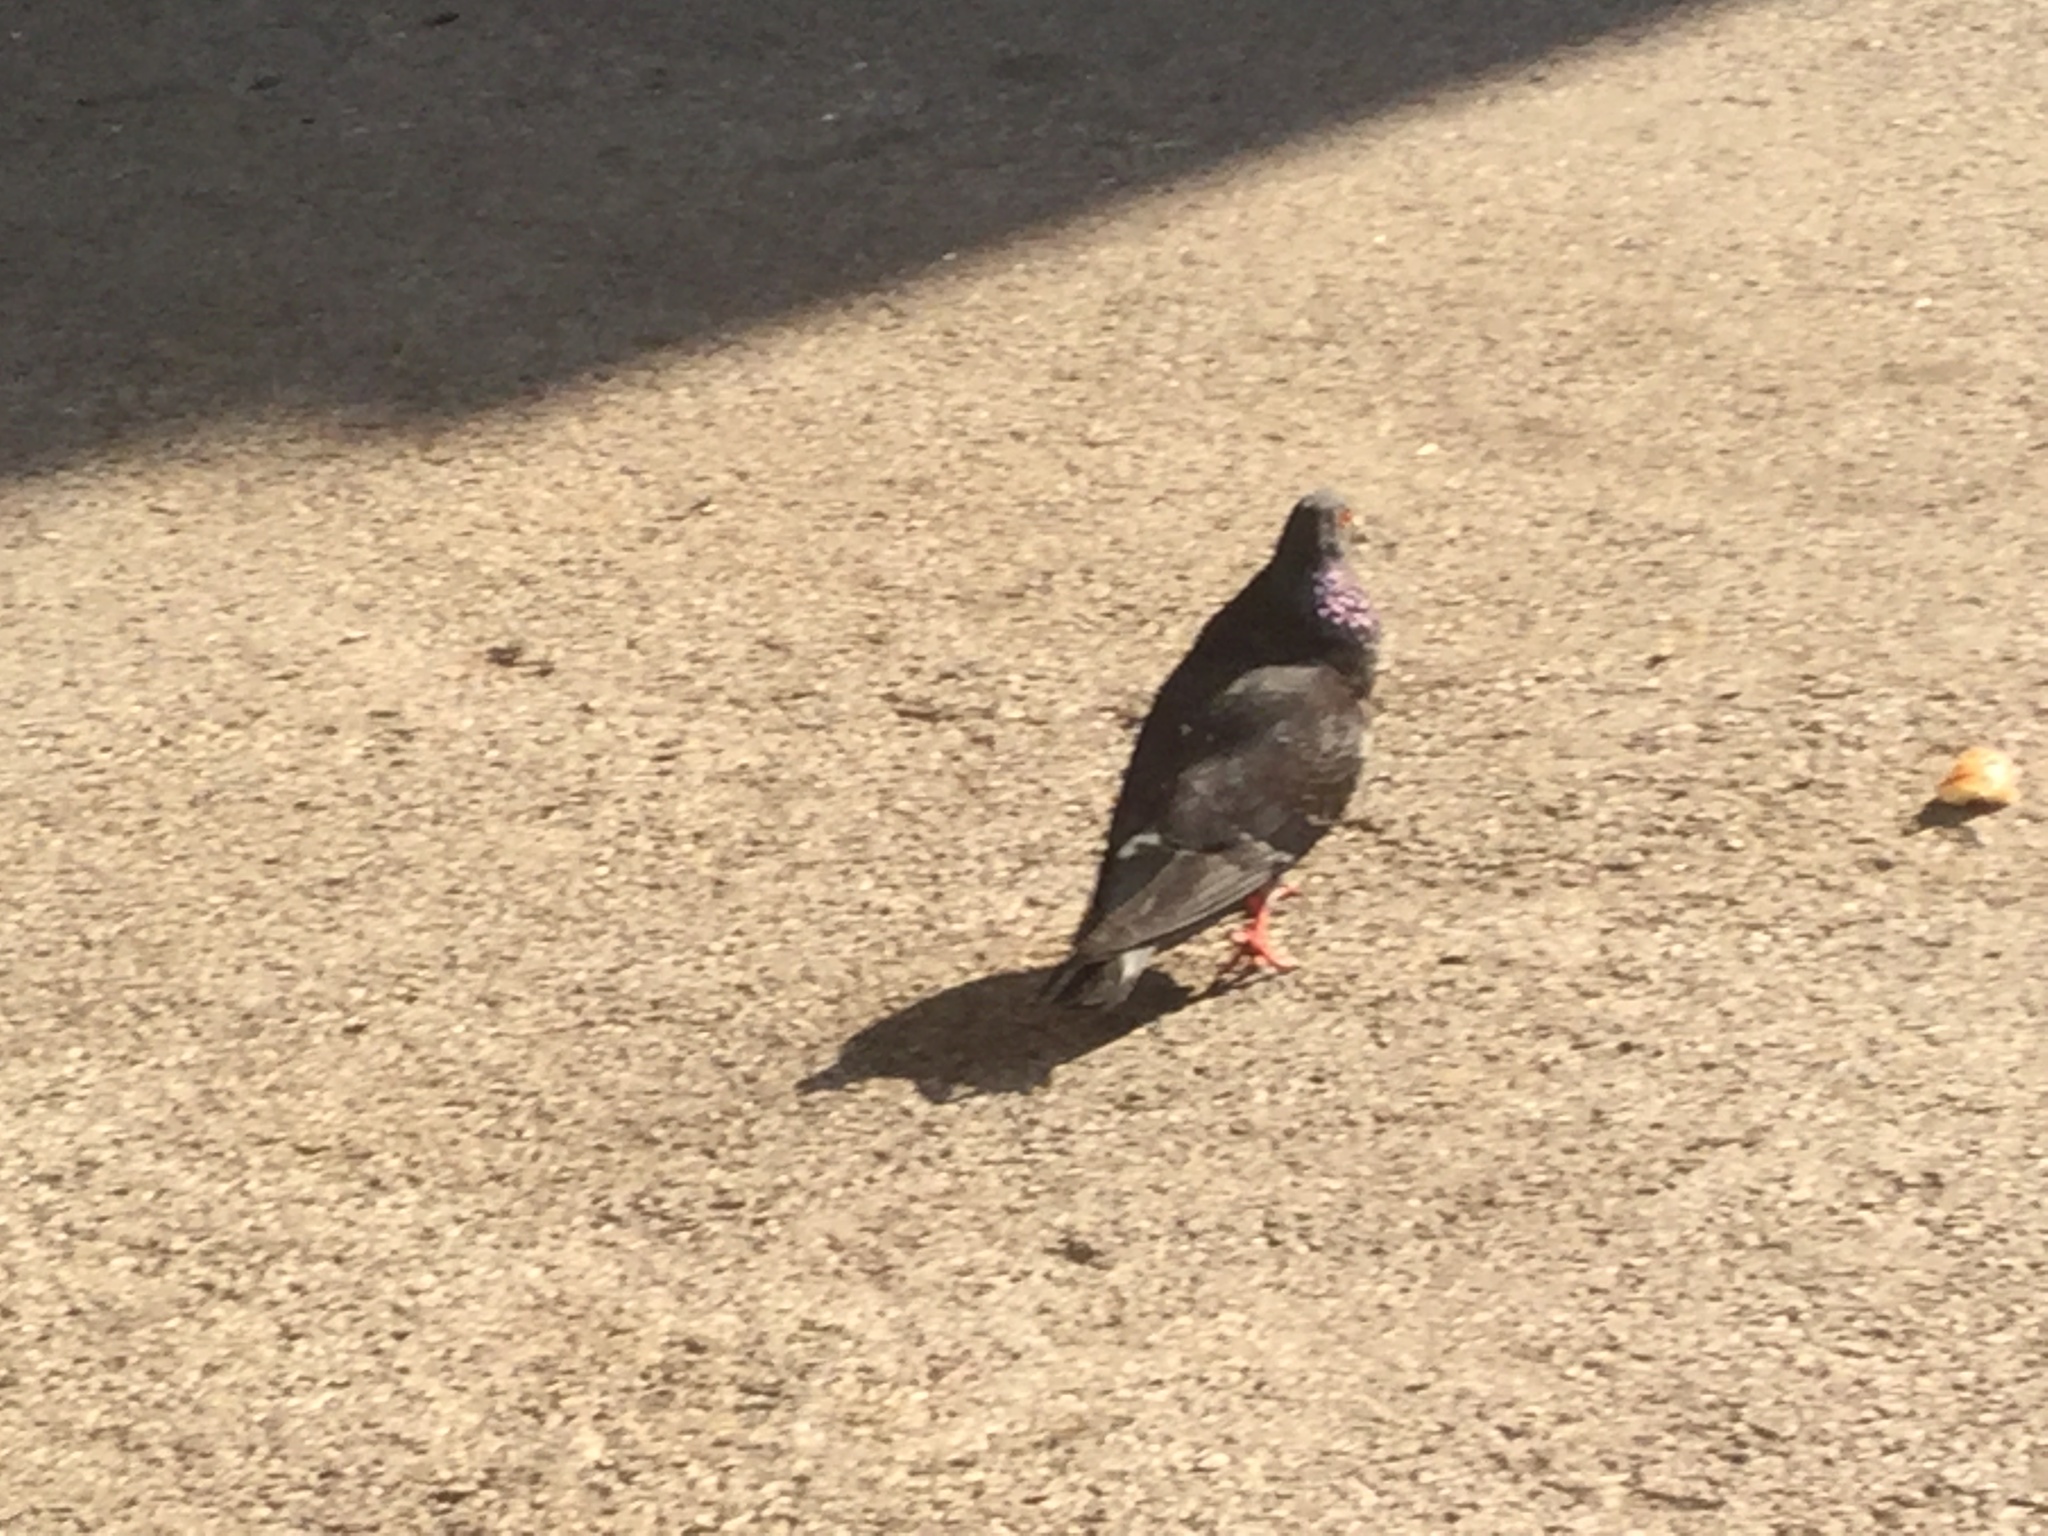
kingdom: Animalia
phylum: Chordata
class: Aves
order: Columbiformes
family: Columbidae
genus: Columba
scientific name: Columba livia
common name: Rock pigeon
